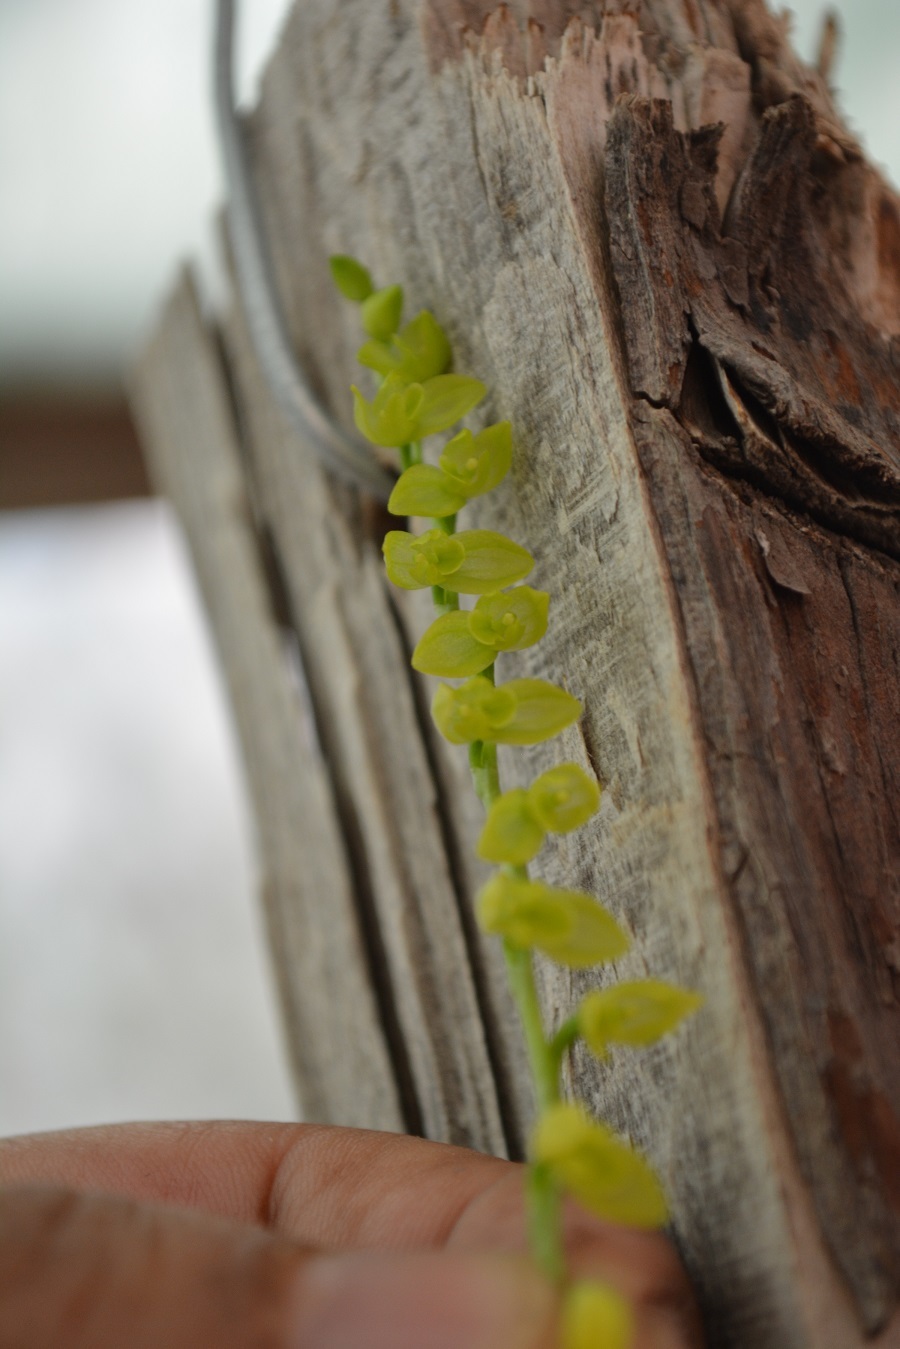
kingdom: Plantae
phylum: Tracheophyta
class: Liliopsida
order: Asparagales
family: Orchidaceae
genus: Pleurothallis
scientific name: Pleurothallis quadrifida
